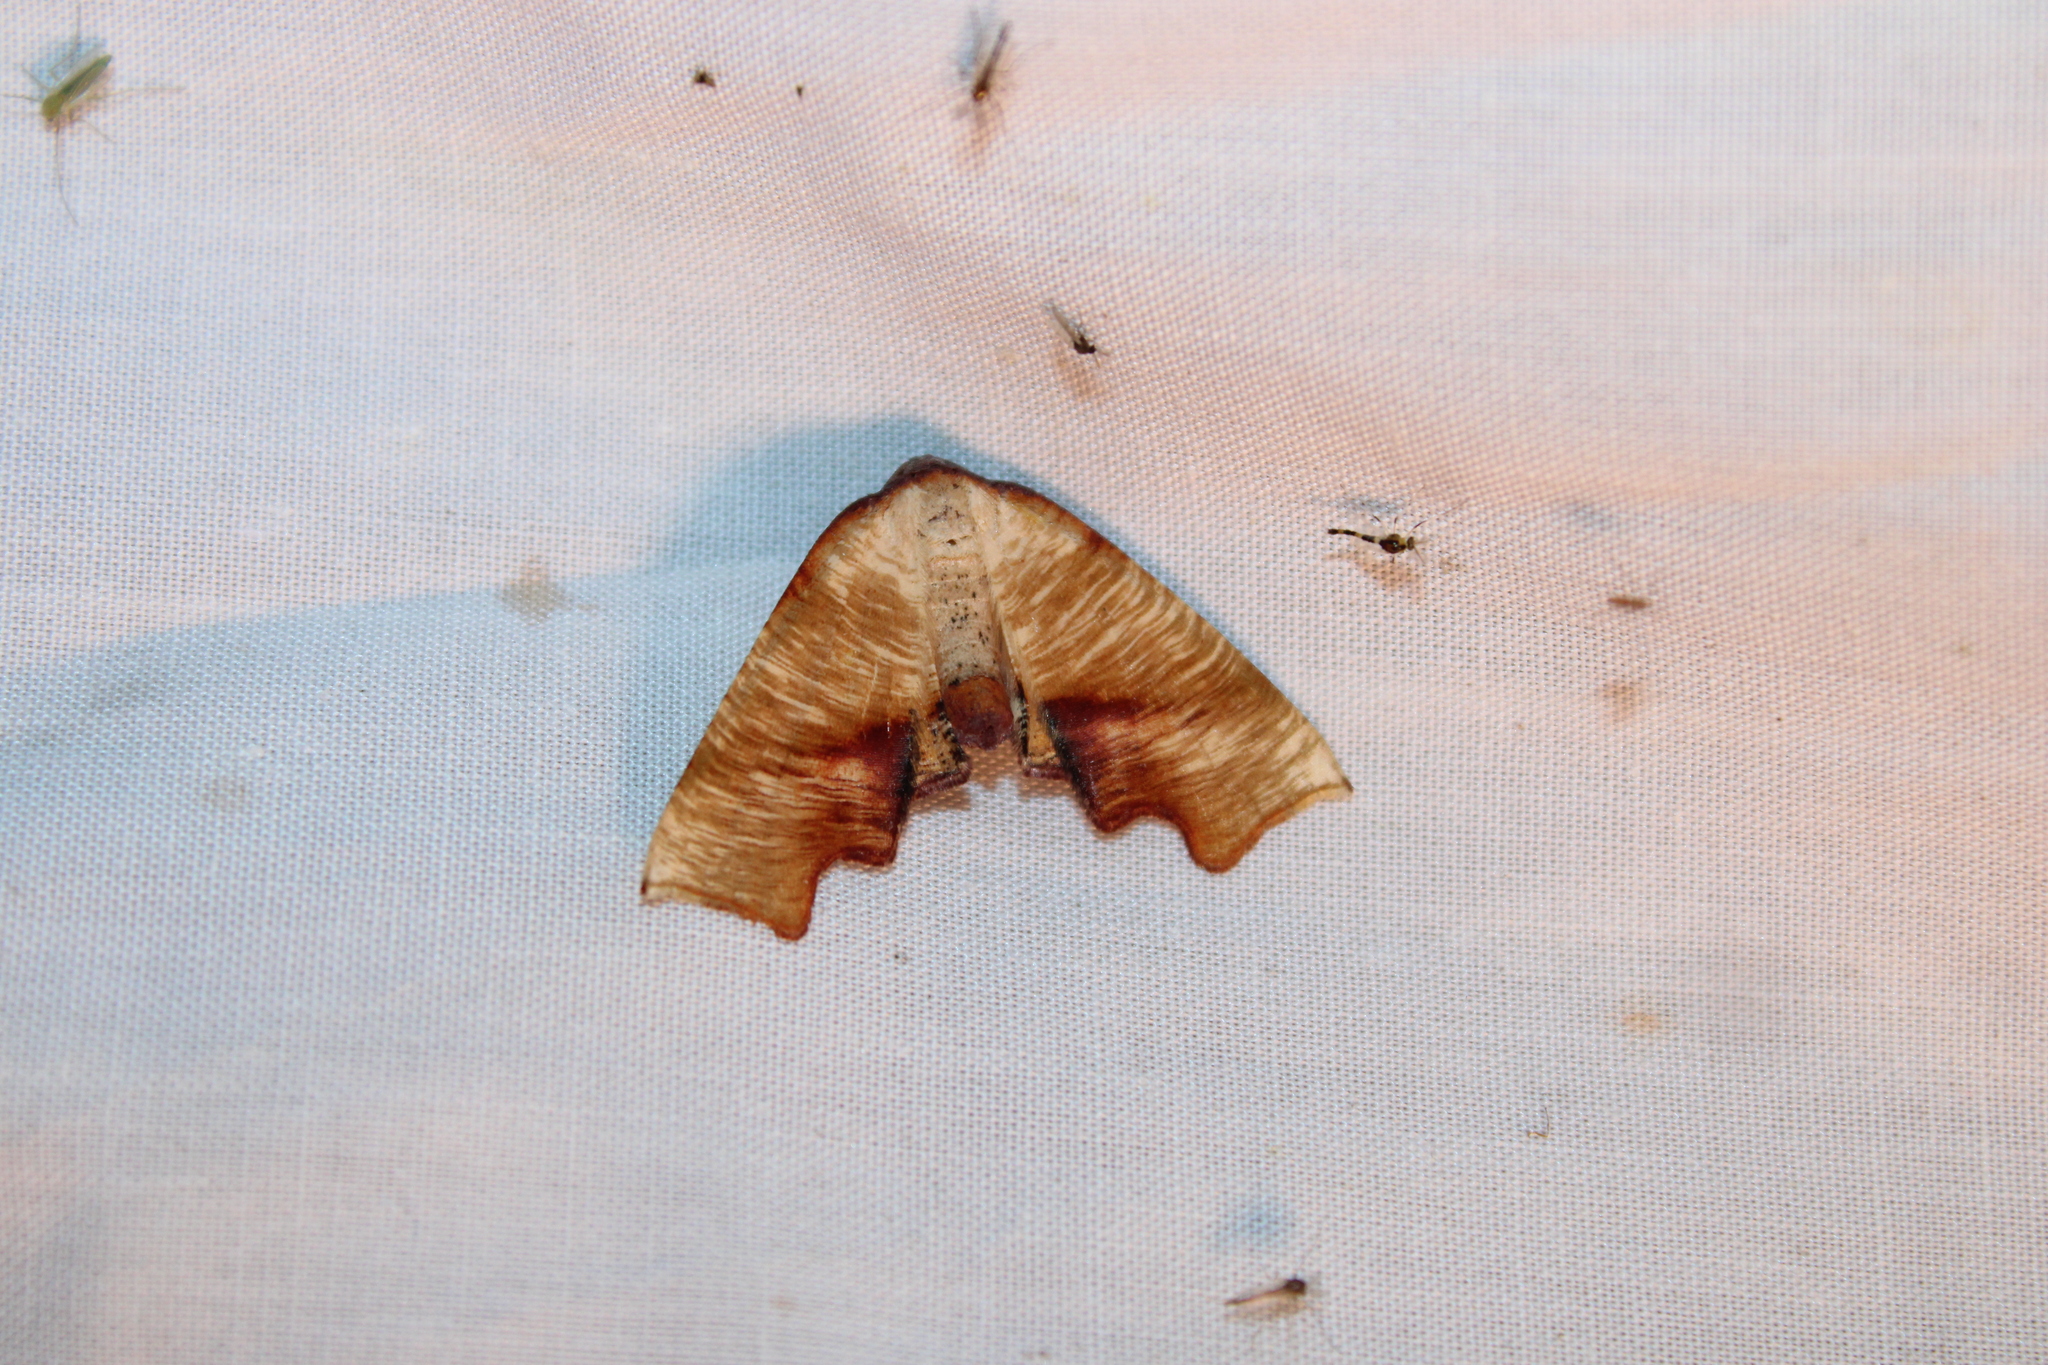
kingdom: Animalia
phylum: Arthropoda
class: Insecta
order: Lepidoptera
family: Geometridae
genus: Plagodis
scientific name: Plagodis fervidaria
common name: Fervid plagodis
